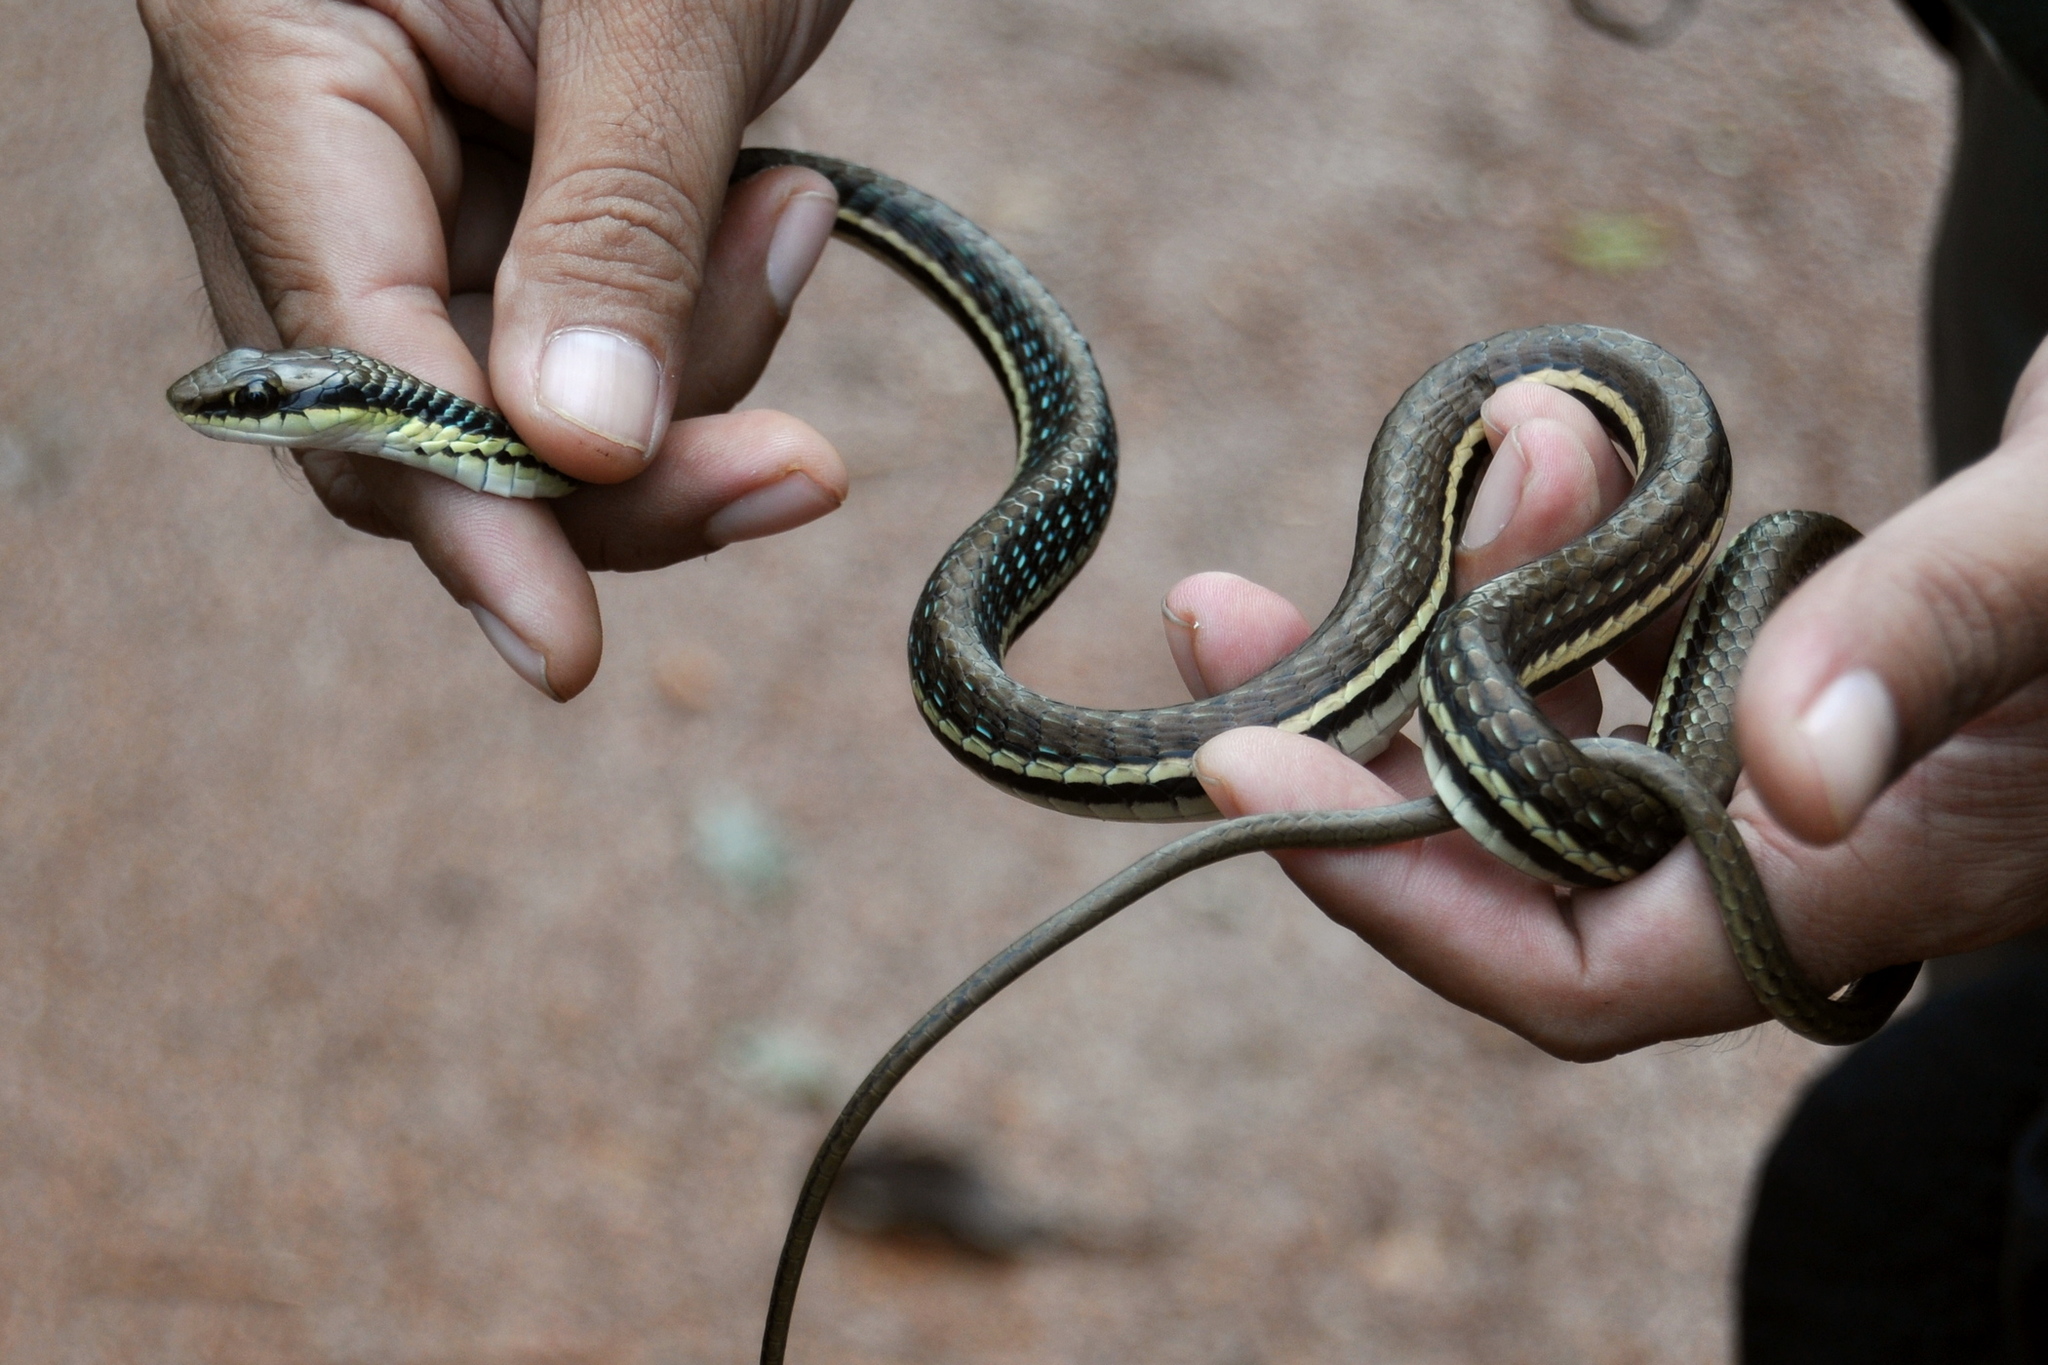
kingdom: Animalia
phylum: Chordata
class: Squamata
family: Colubridae
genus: Dendrelaphis
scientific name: Dendrelaphis pictus
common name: Indonesian bronze-back
